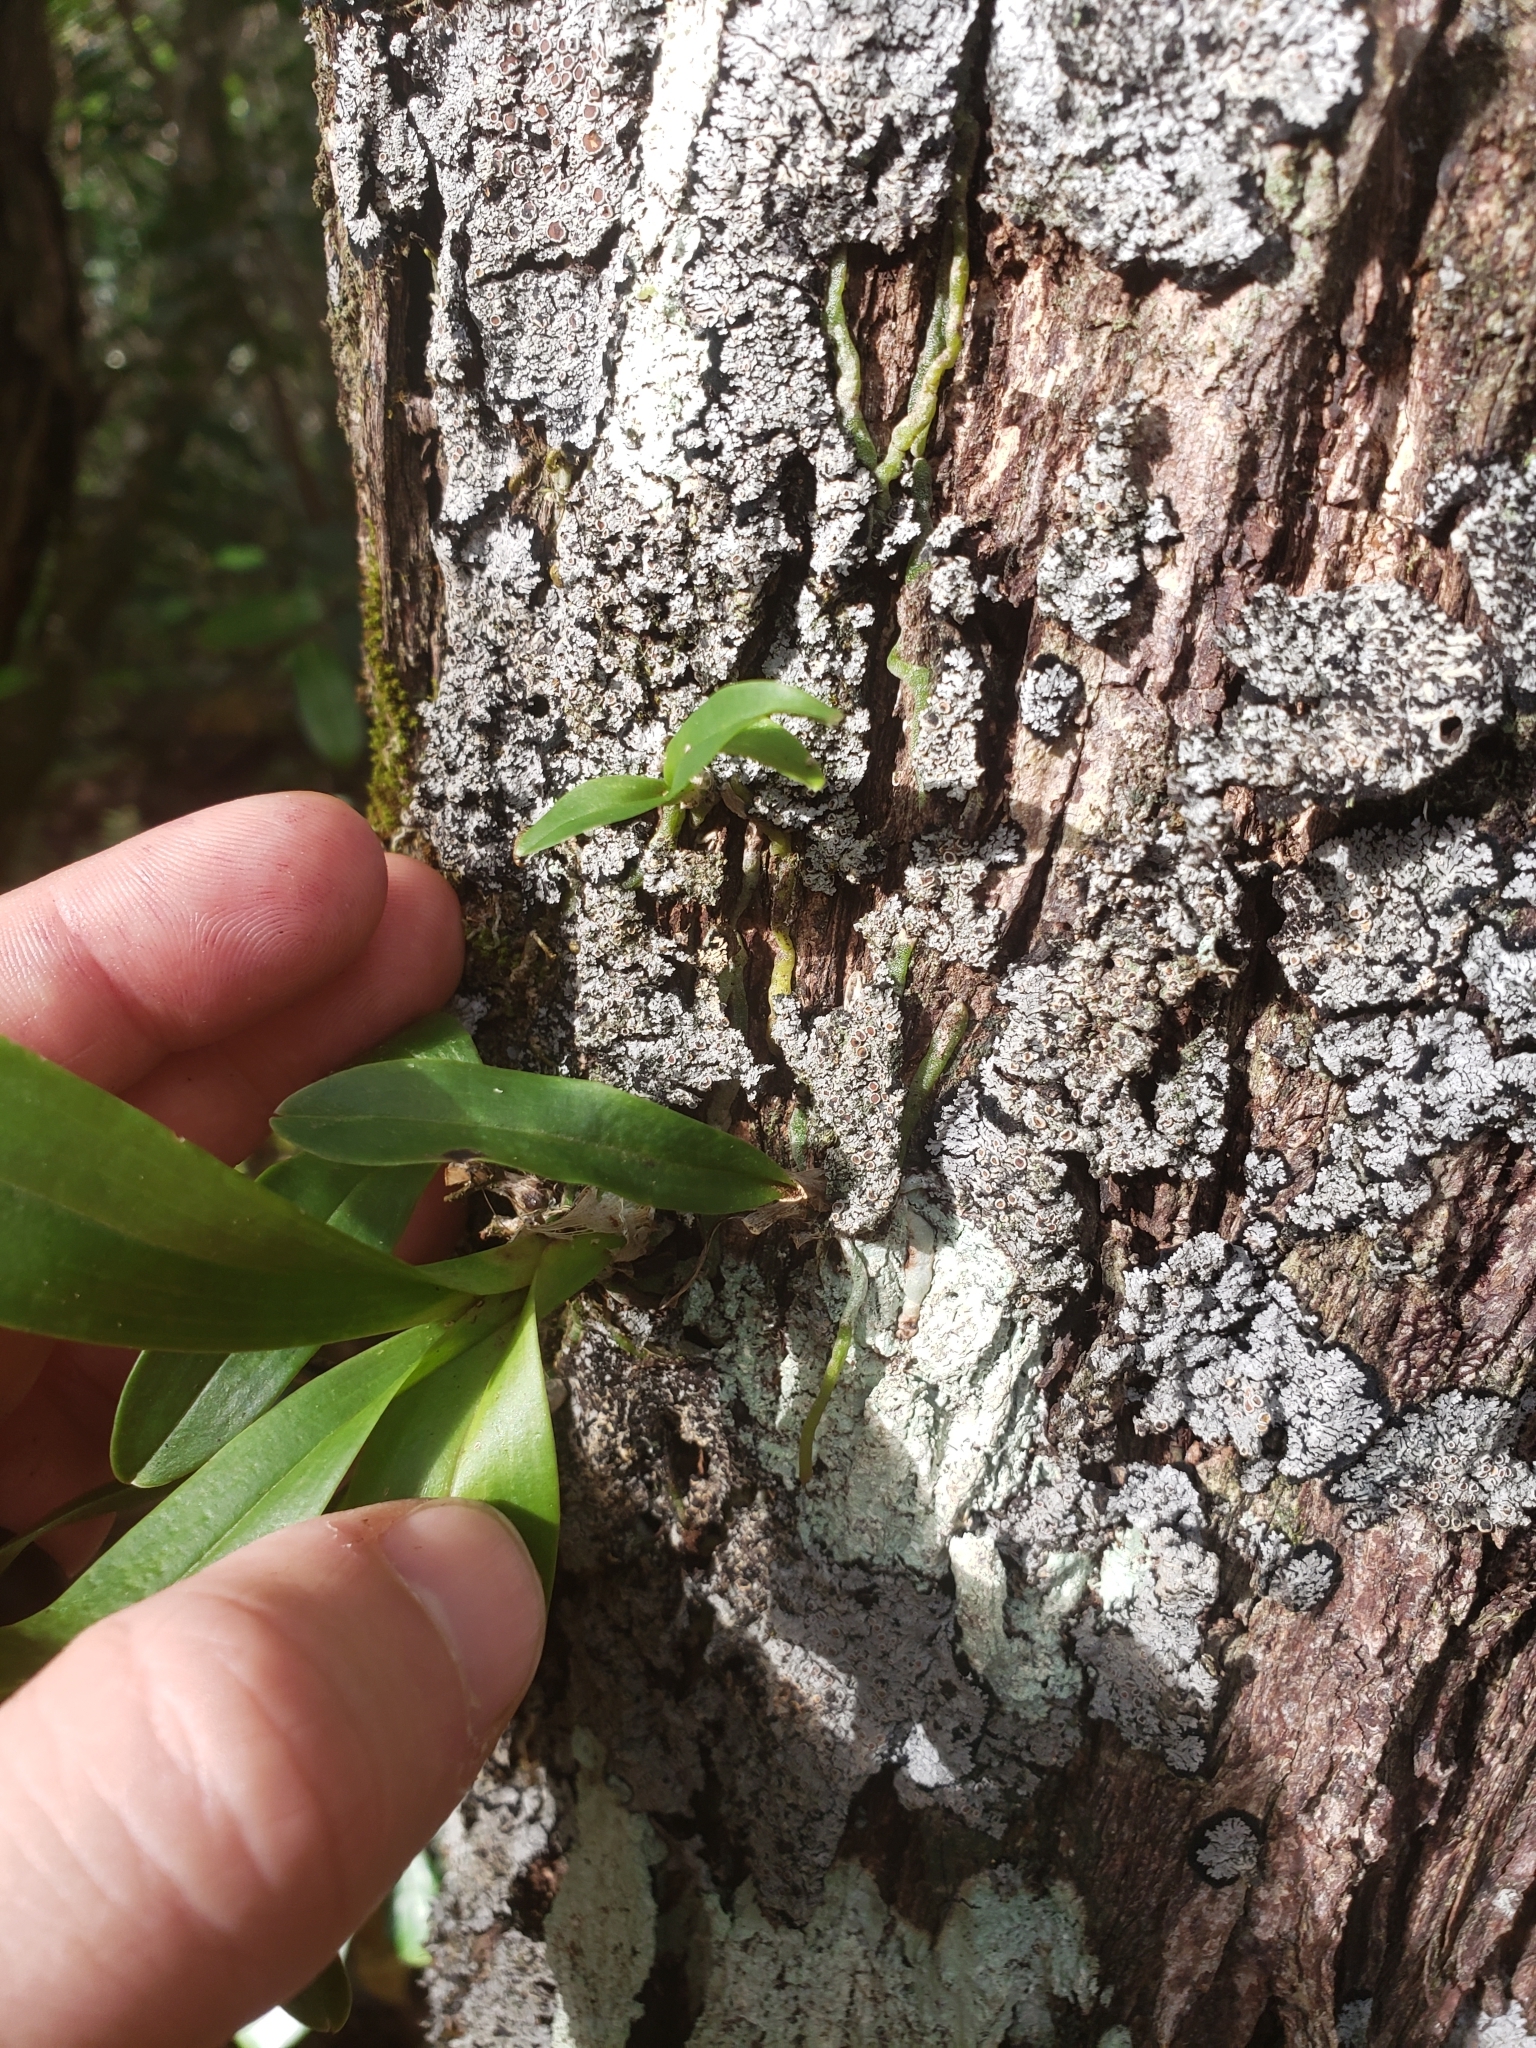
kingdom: Plantae
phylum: Tracheophyta
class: Liliopsida
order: Asparagales
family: Orchidaceae
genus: Polystachya
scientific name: Polystachya concreta
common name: Greater yellowspike orchid
